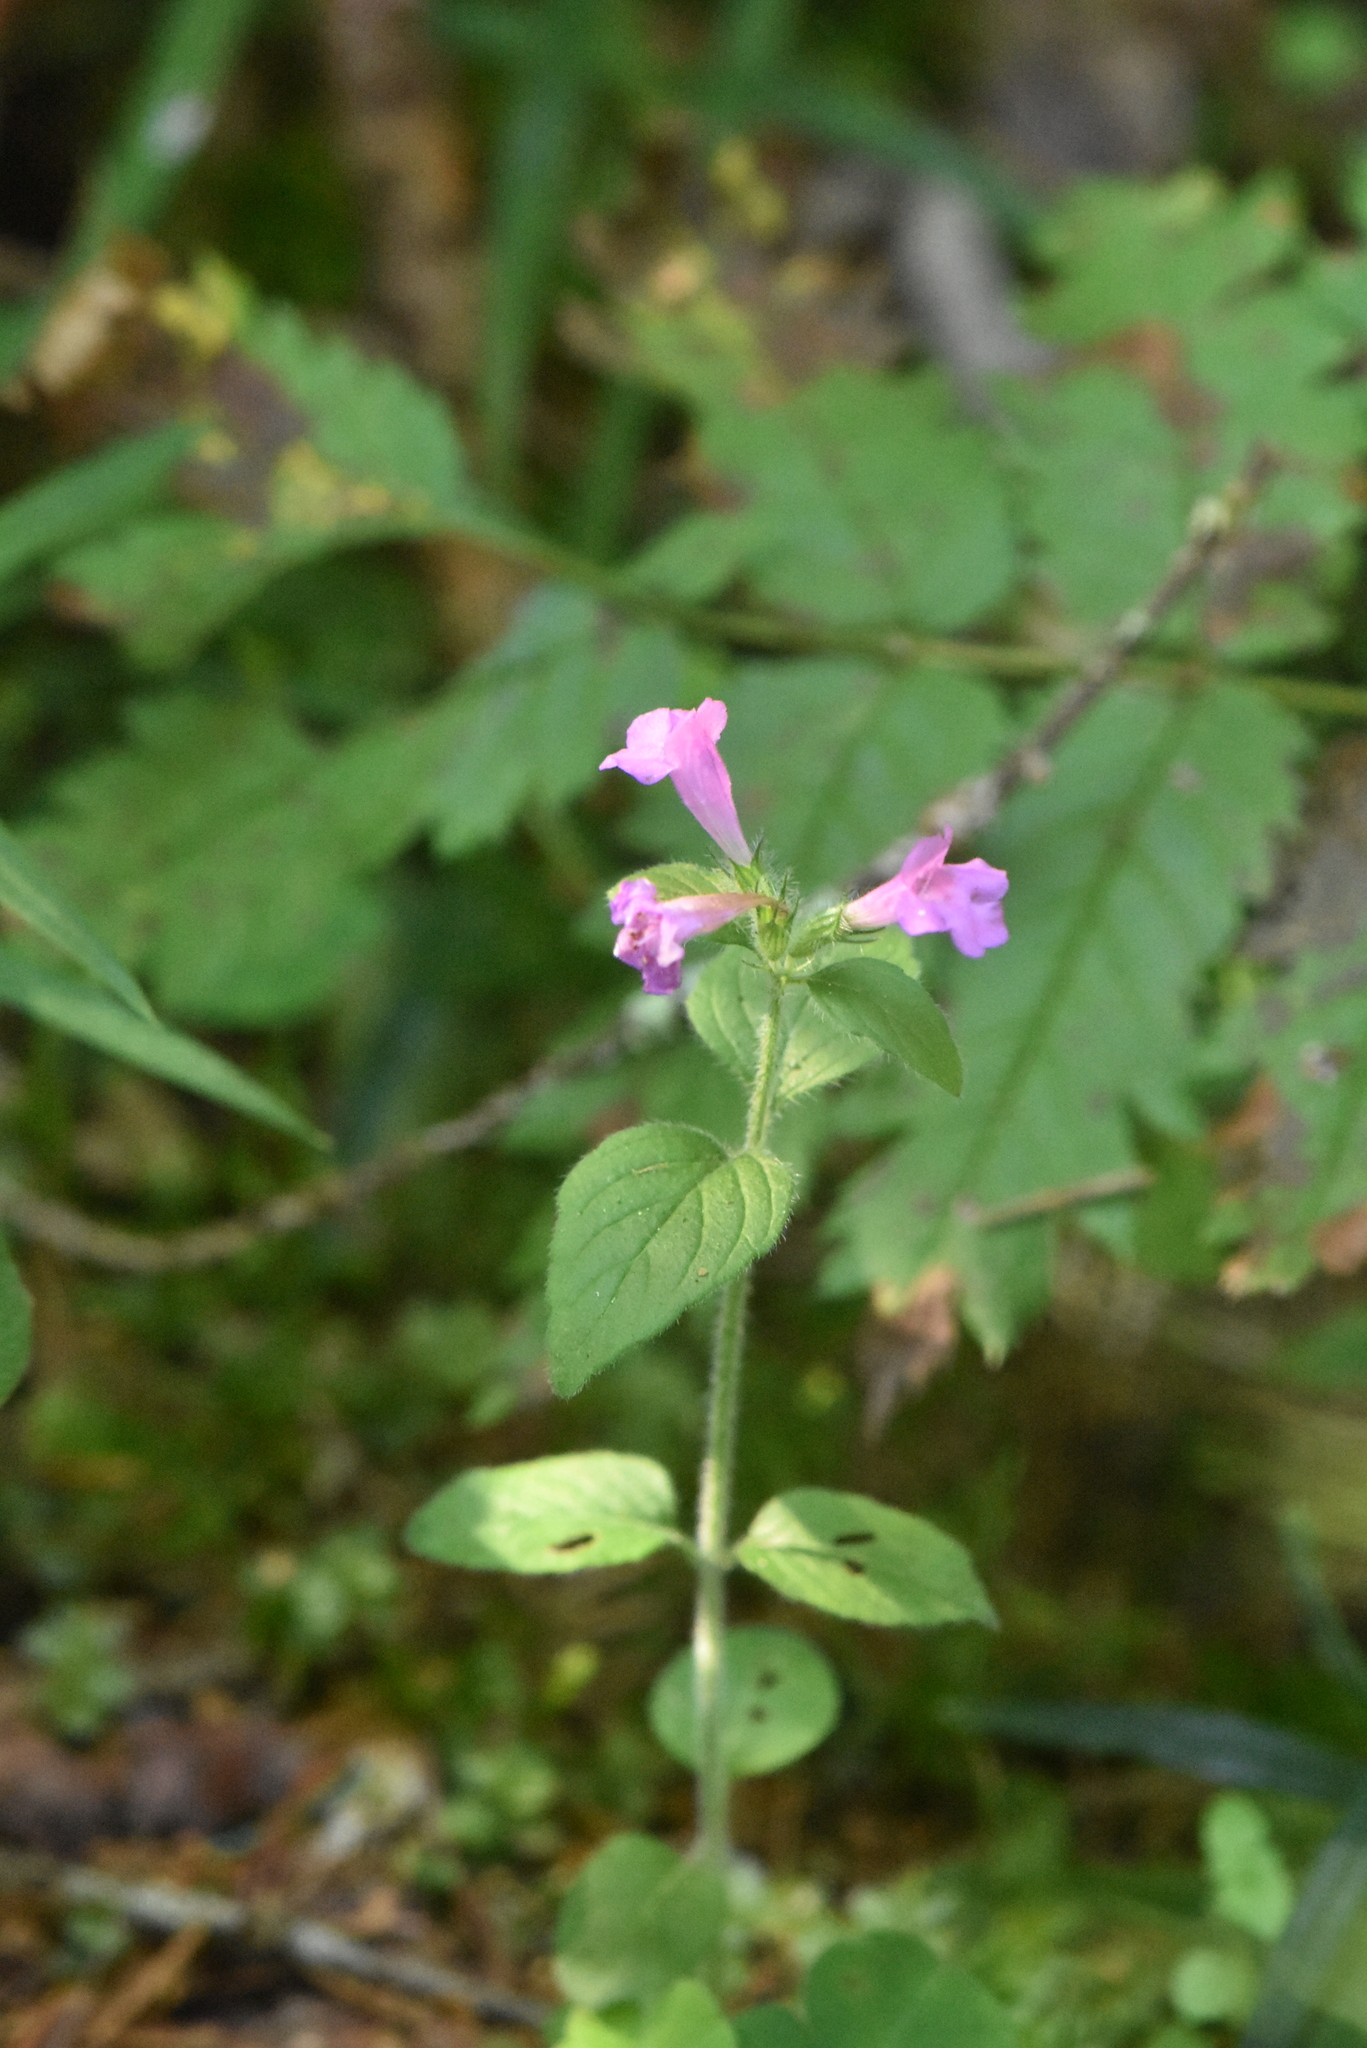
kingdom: Plantae
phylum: Tracheophyta
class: Magnoliopsida
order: Lamiales
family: Lamiaceae
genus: Clinopodium
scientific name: Clinopodium vulgare
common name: Wild basil
